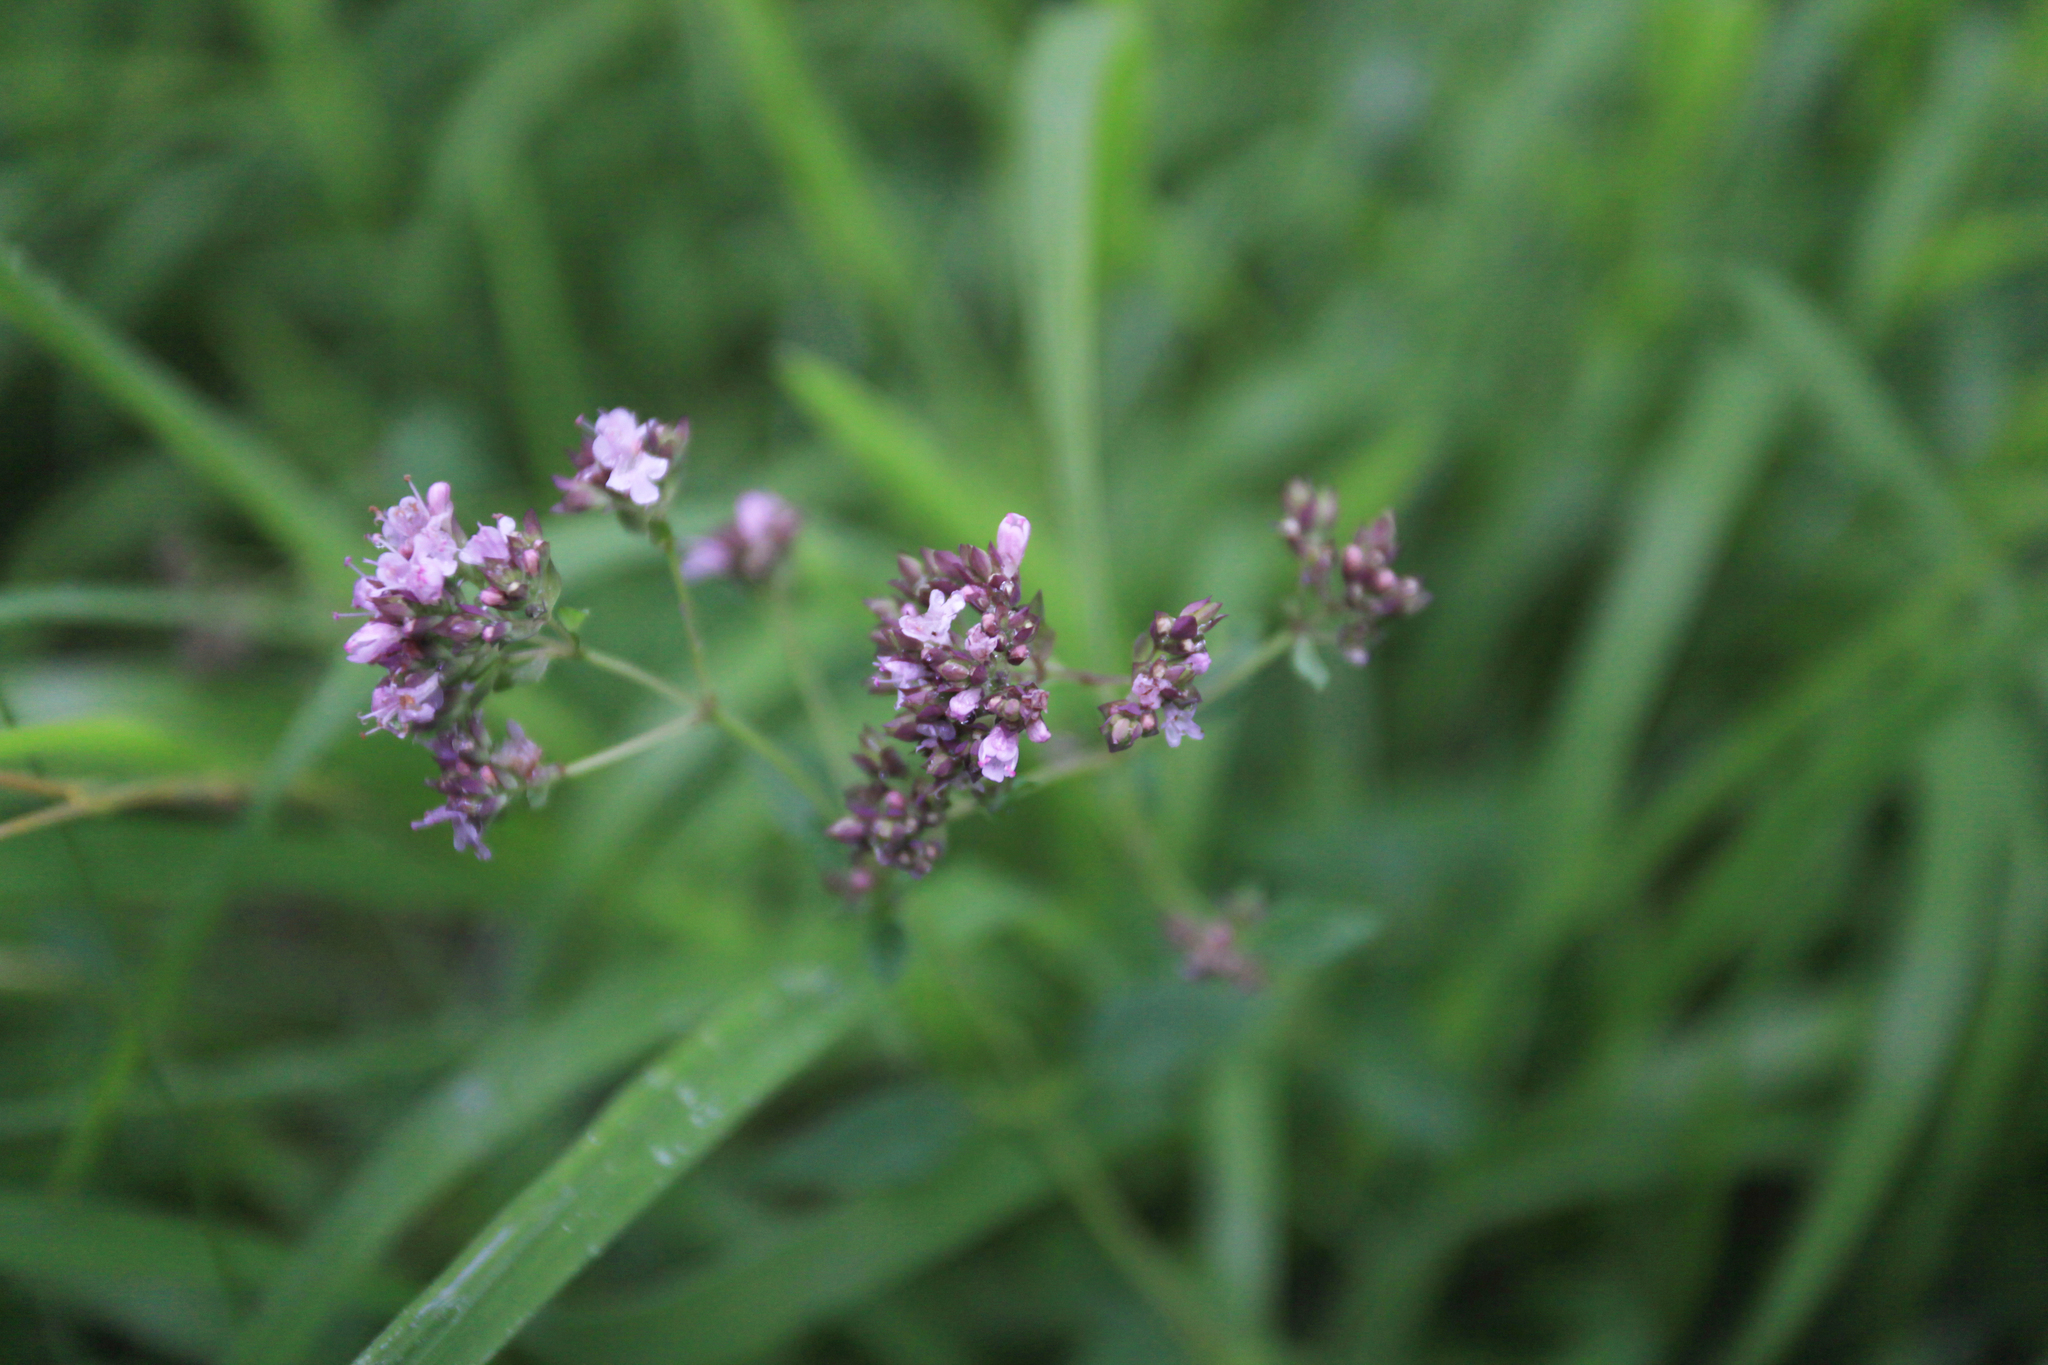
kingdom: Plantae
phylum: Tracheophyta
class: Magnoliopsida
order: Lamiales
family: Lamiaceae
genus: Origanum
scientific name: Origanum vulgare
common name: Wild marjoram
